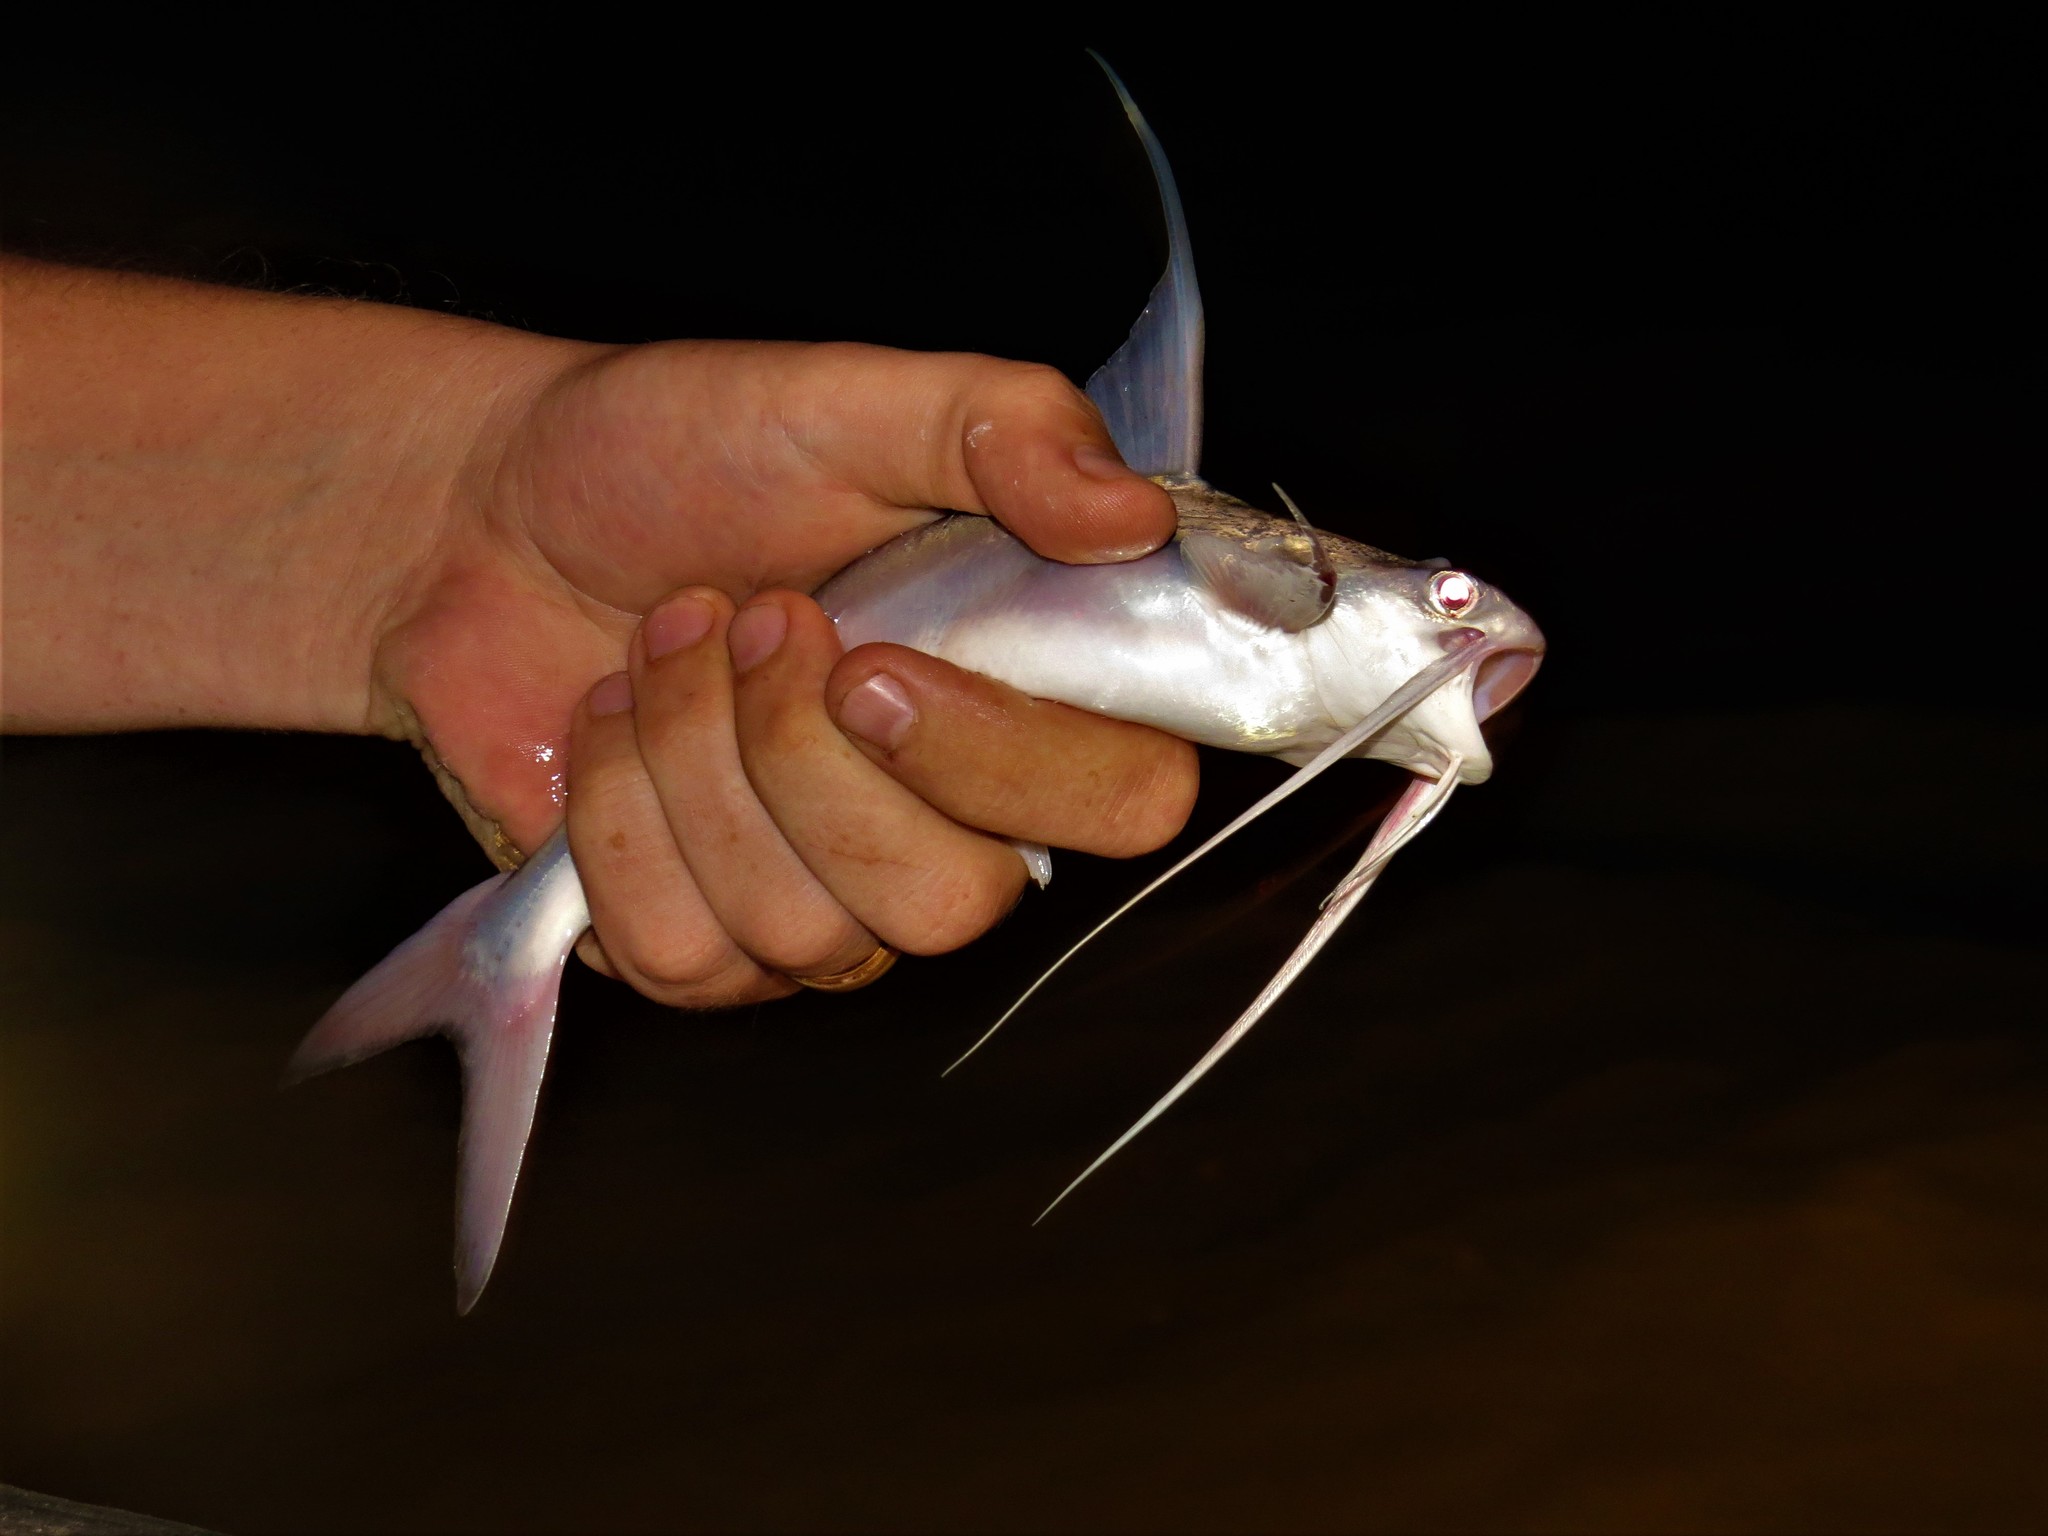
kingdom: Animalia
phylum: Chordata
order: Siluriformes
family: Ariidae
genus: Bagre
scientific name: Bagre marinus
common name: Gafftopsail sea catfish
